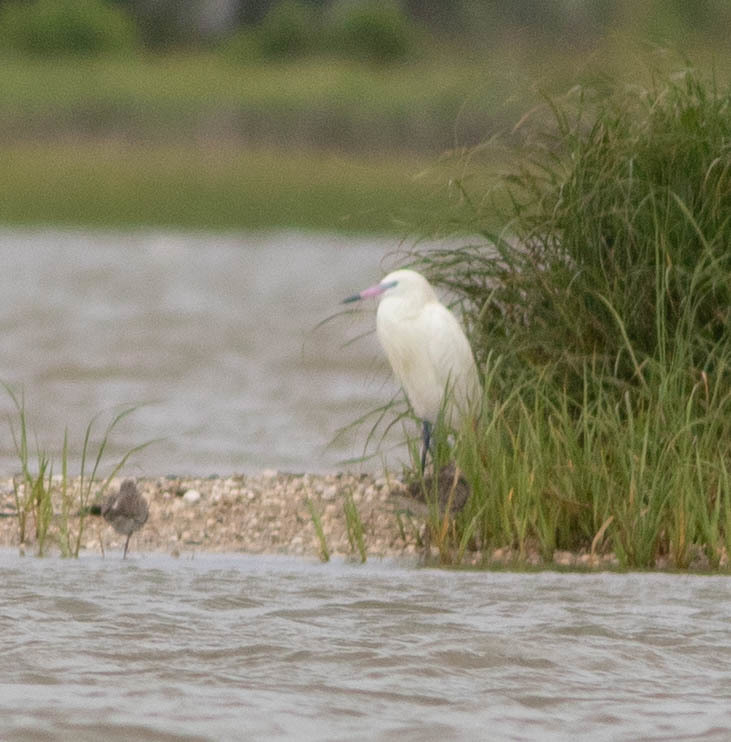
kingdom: Animalia
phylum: Chordata
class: Aves
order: Pelecaniformes
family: Ardeidae
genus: Egretta
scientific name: Egretta rufescens
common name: Reddish egret
